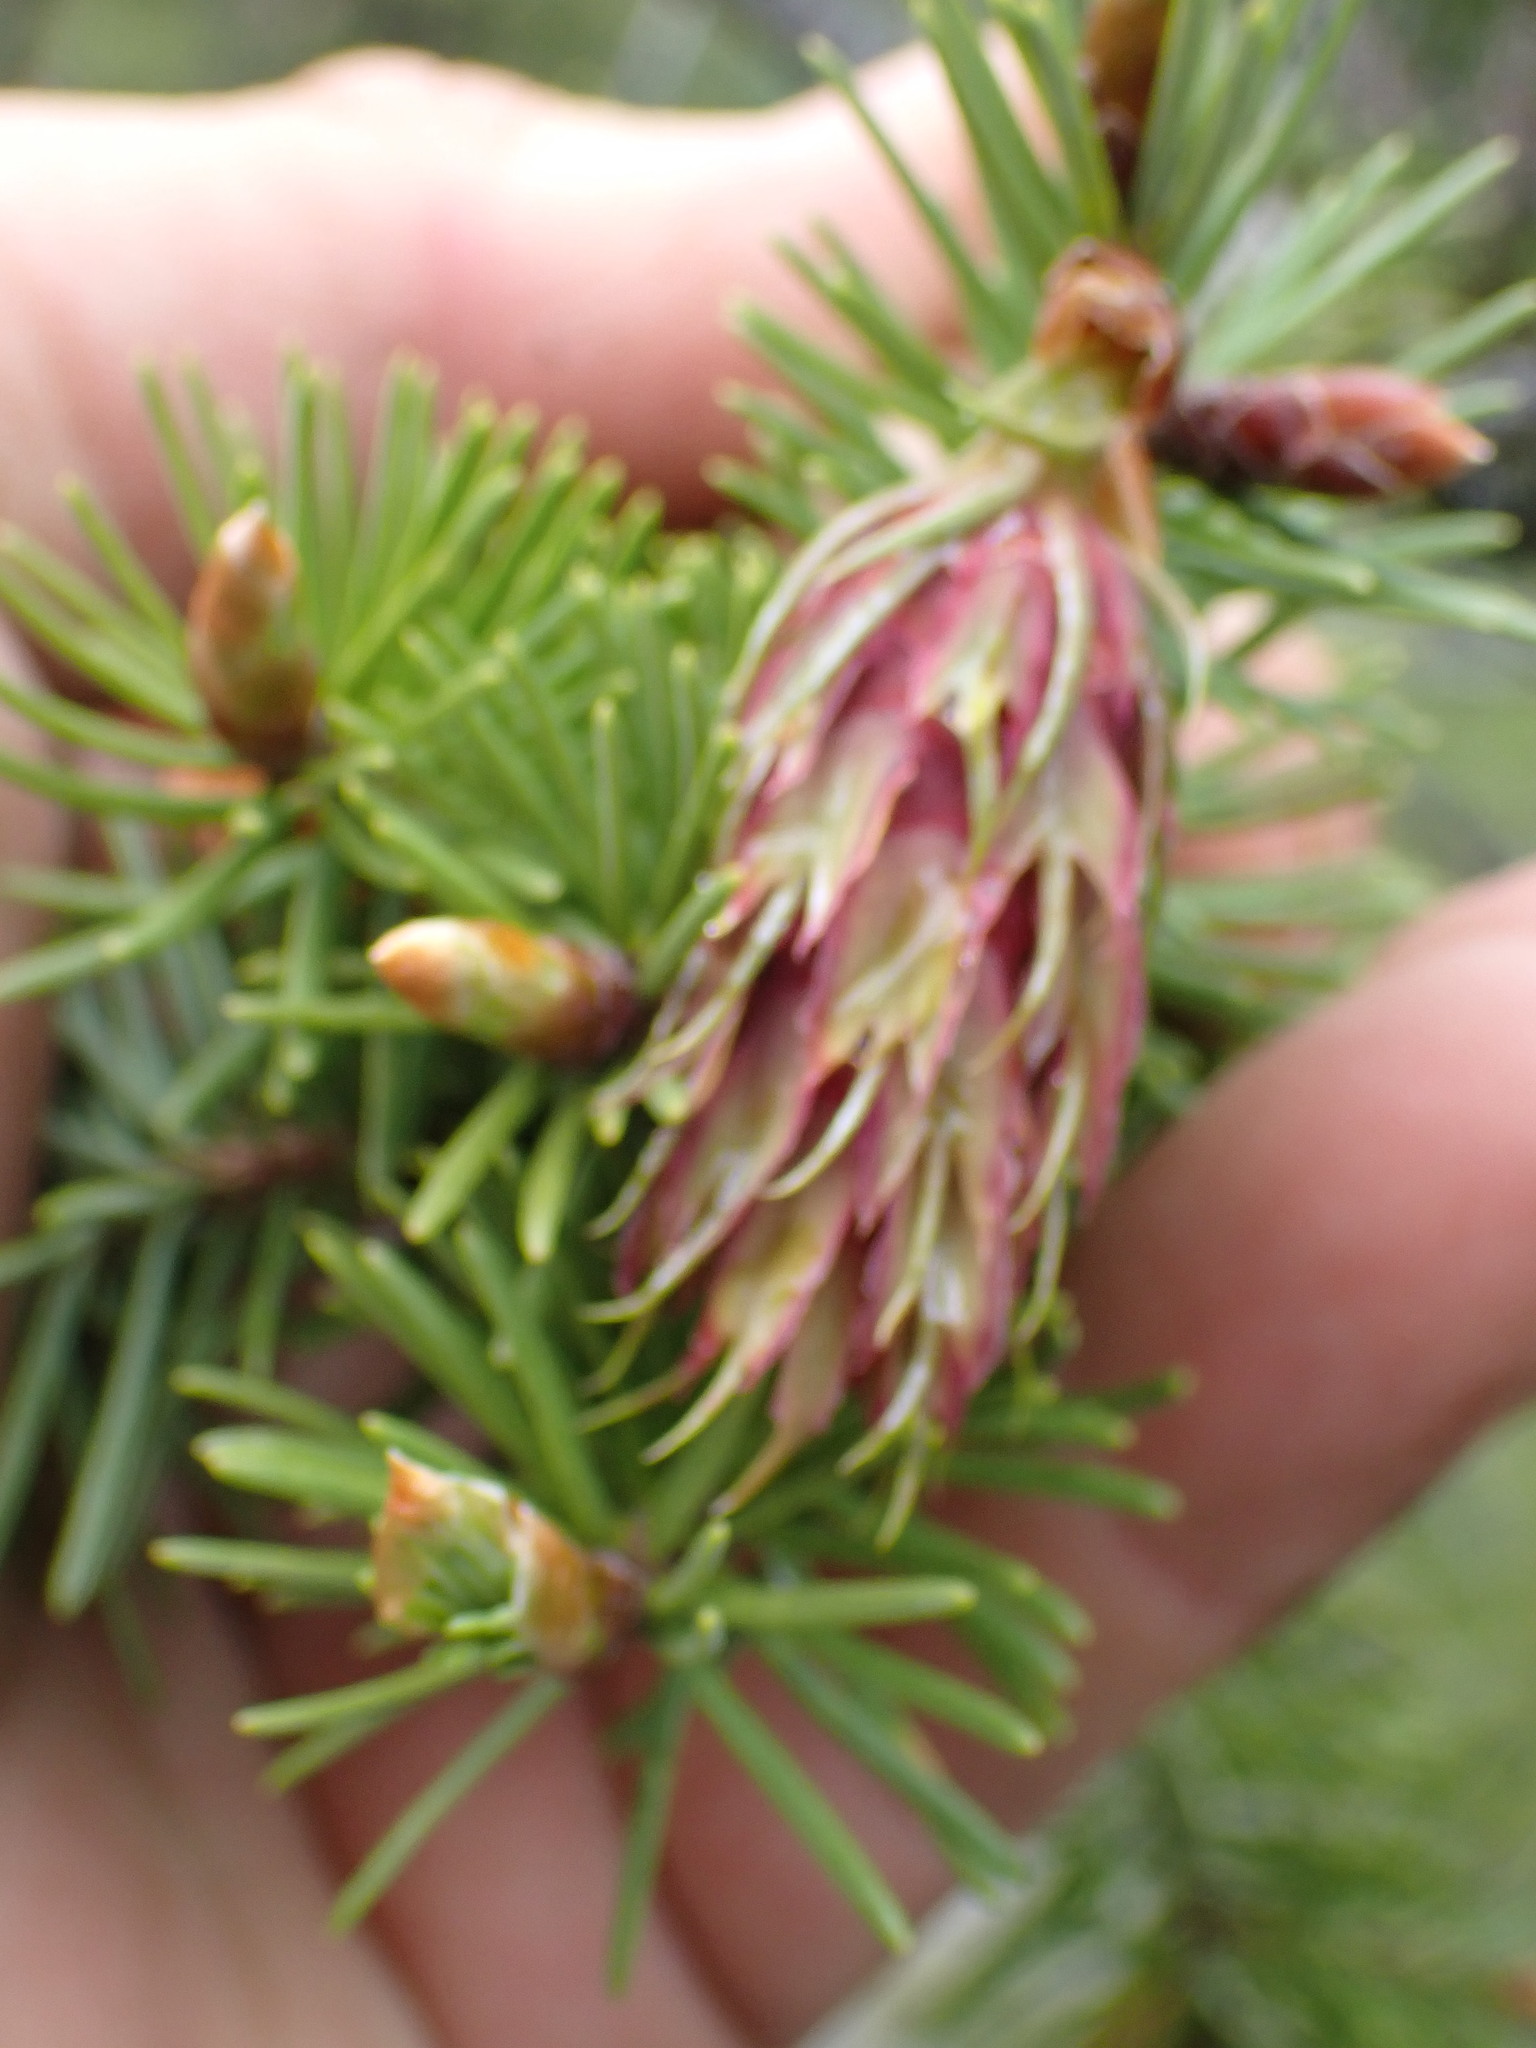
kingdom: Plantae
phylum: Tracheophyta
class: Pinopsida
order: Pinales
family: Pinaceae
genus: Pseudotsuga
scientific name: Pseudotsuga menziesii
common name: Douglas fir
